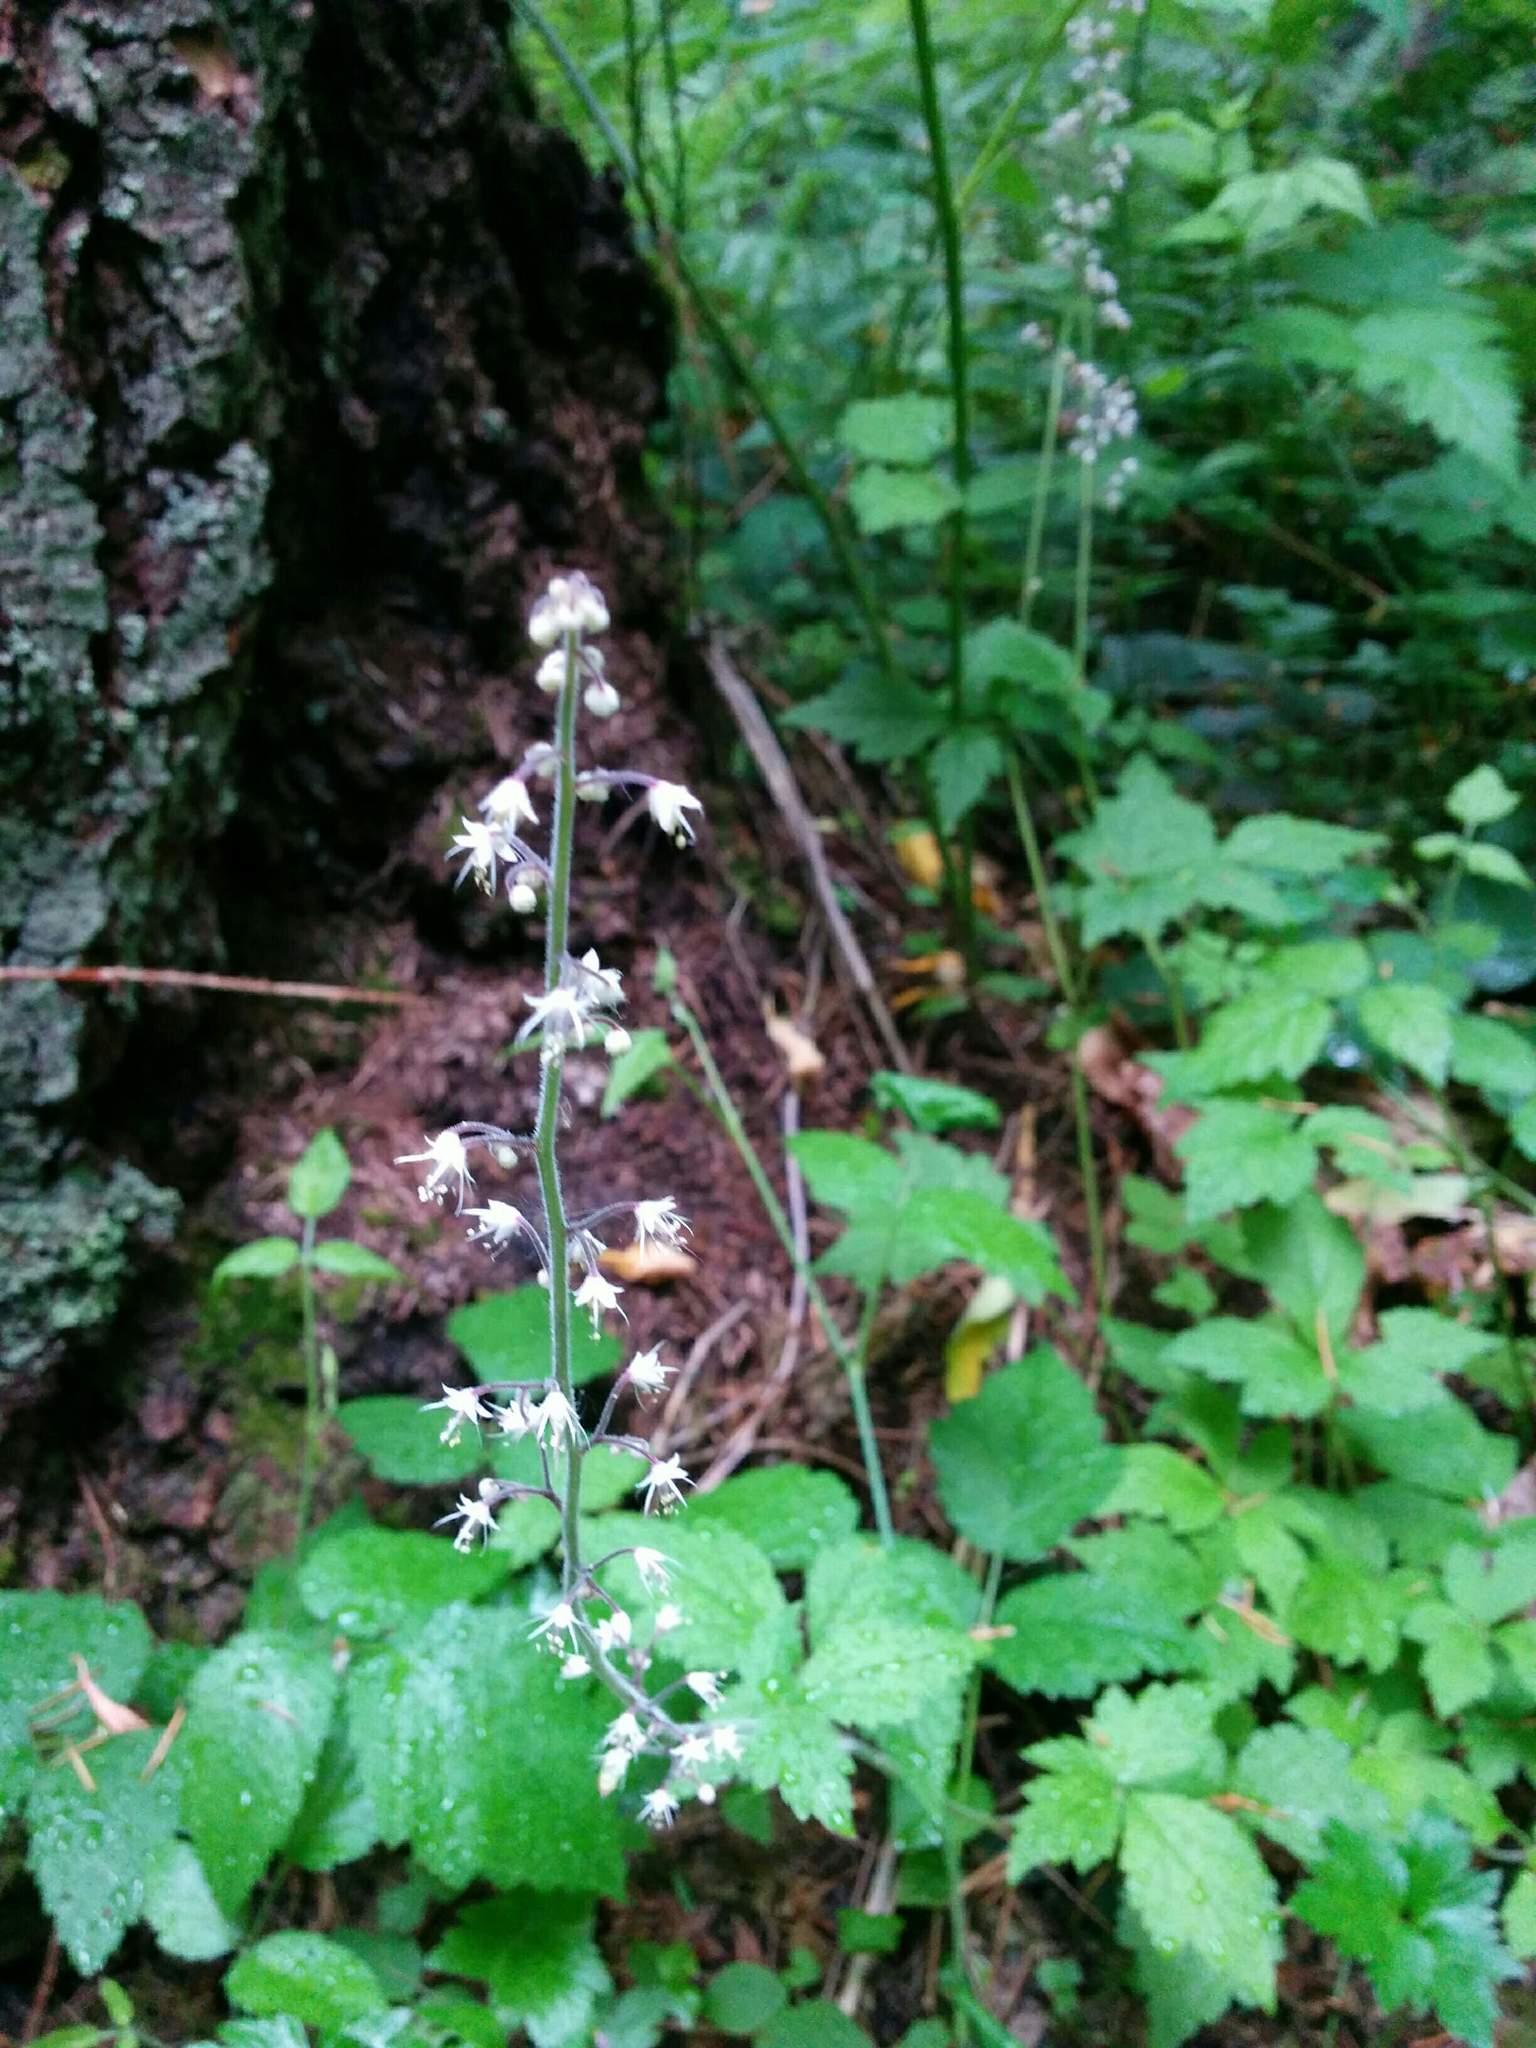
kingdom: Plantae
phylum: Tracheophyta
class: Magnoliopsida
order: Saxifragales
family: Saxifragaceae
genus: Tiarella
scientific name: Tiarella trifoliata
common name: Sugar-scoop
